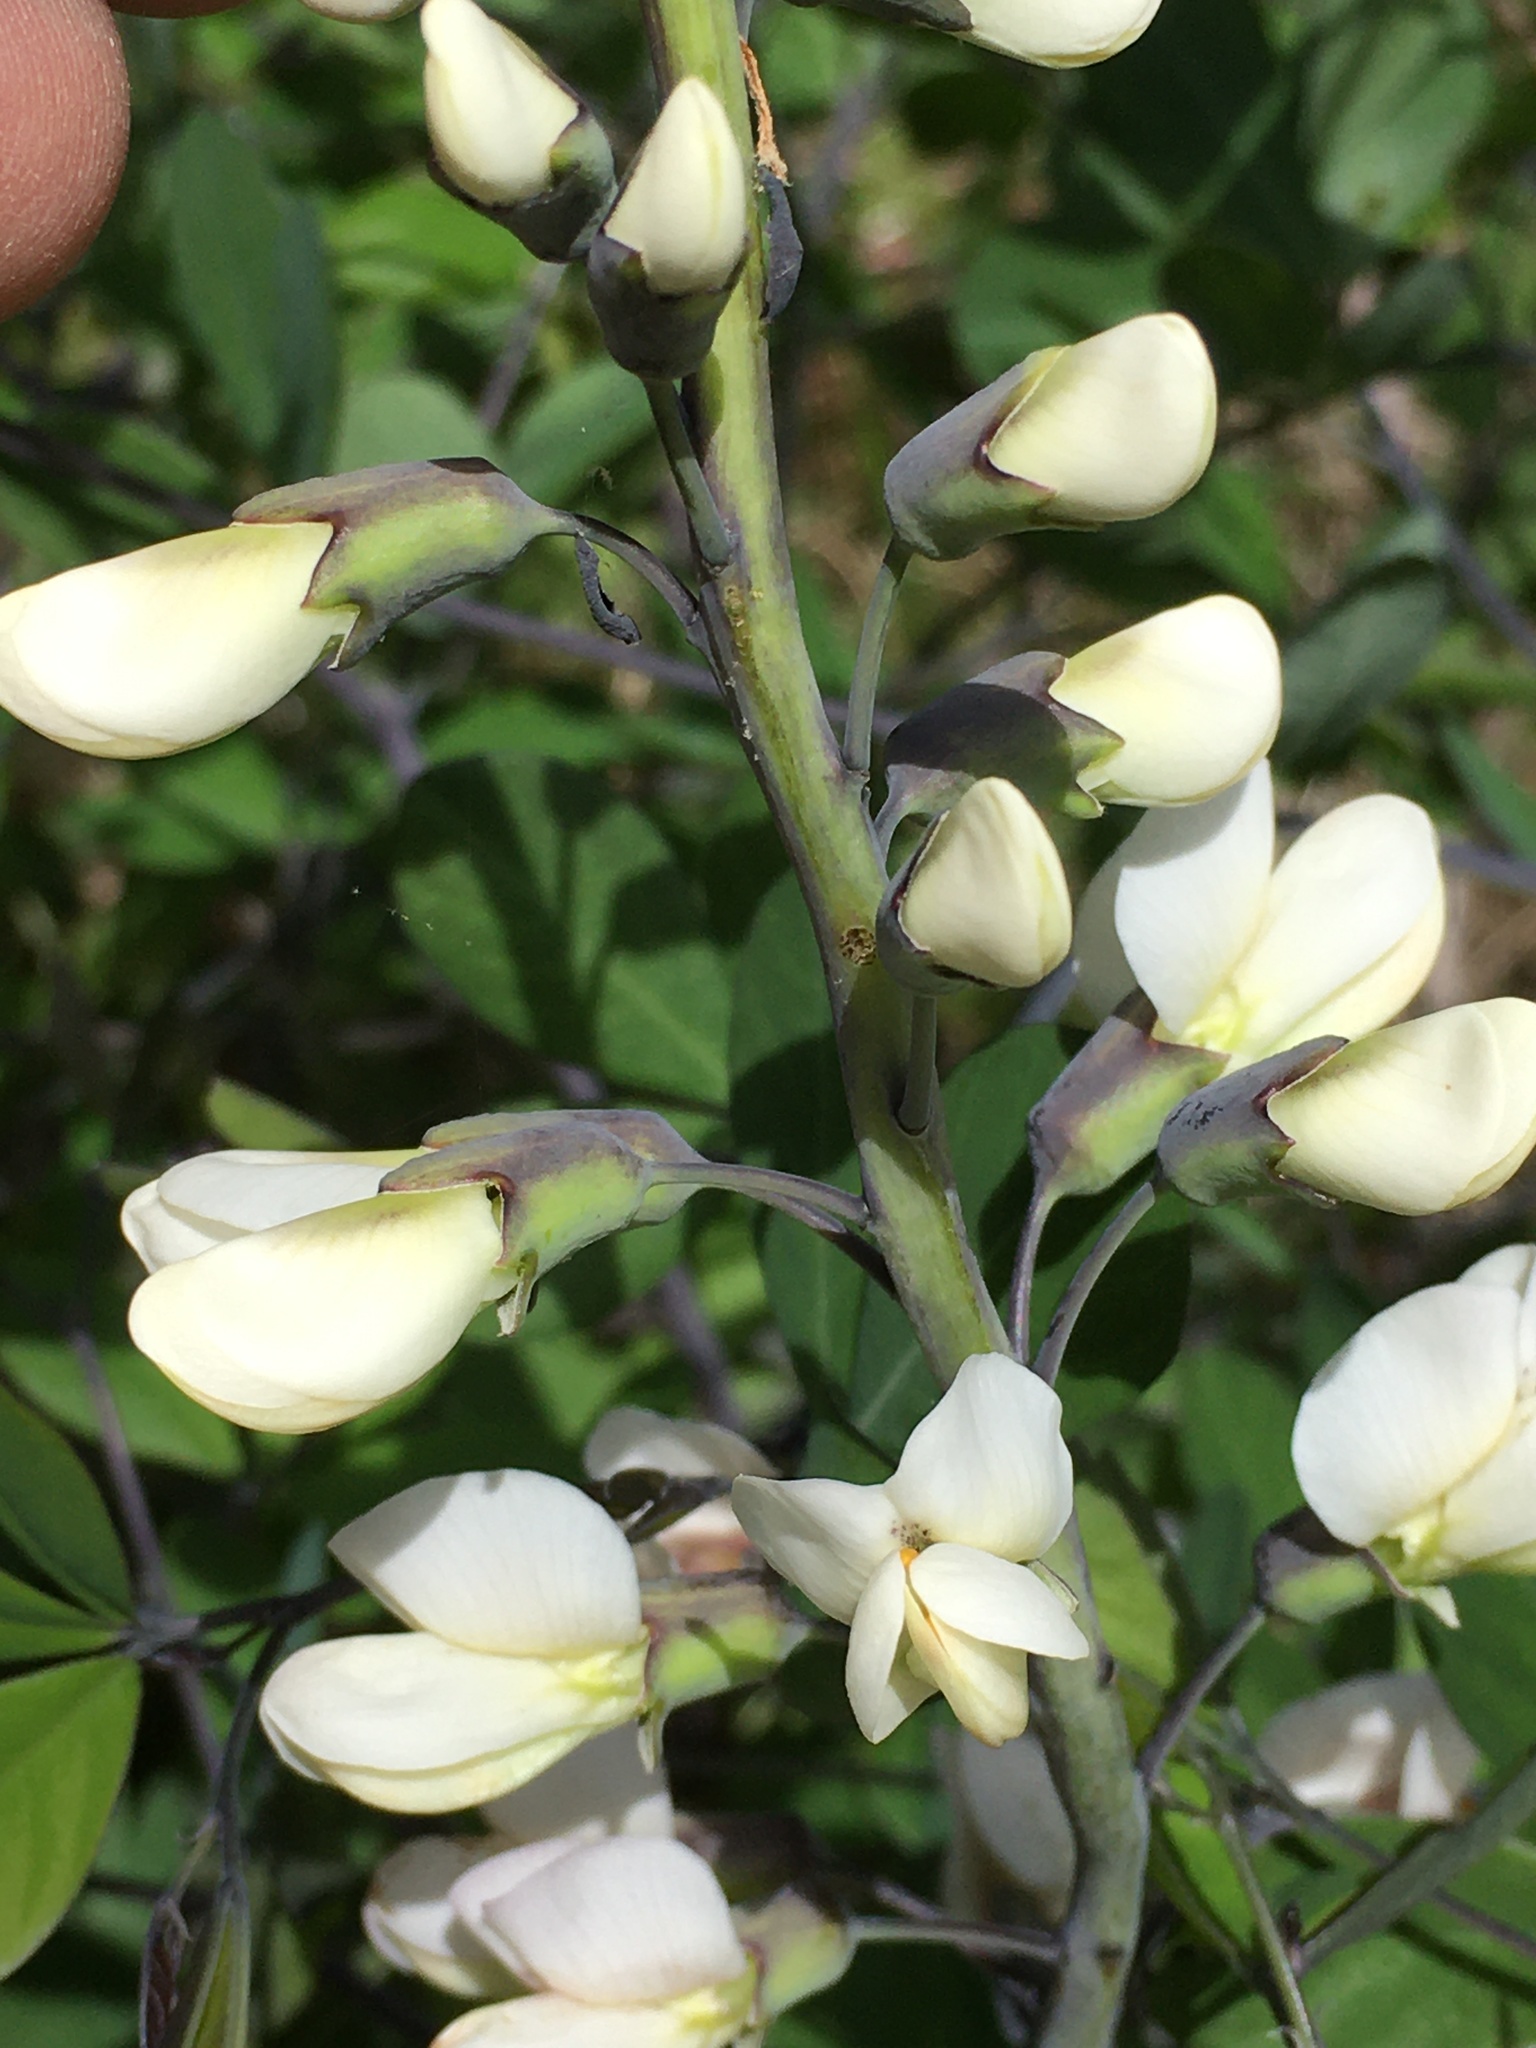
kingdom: Plantae
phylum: Tracheophyta
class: Magnoliopsida
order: Fabales
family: Fabaceae
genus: Baptisia
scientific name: Baptisia alba
